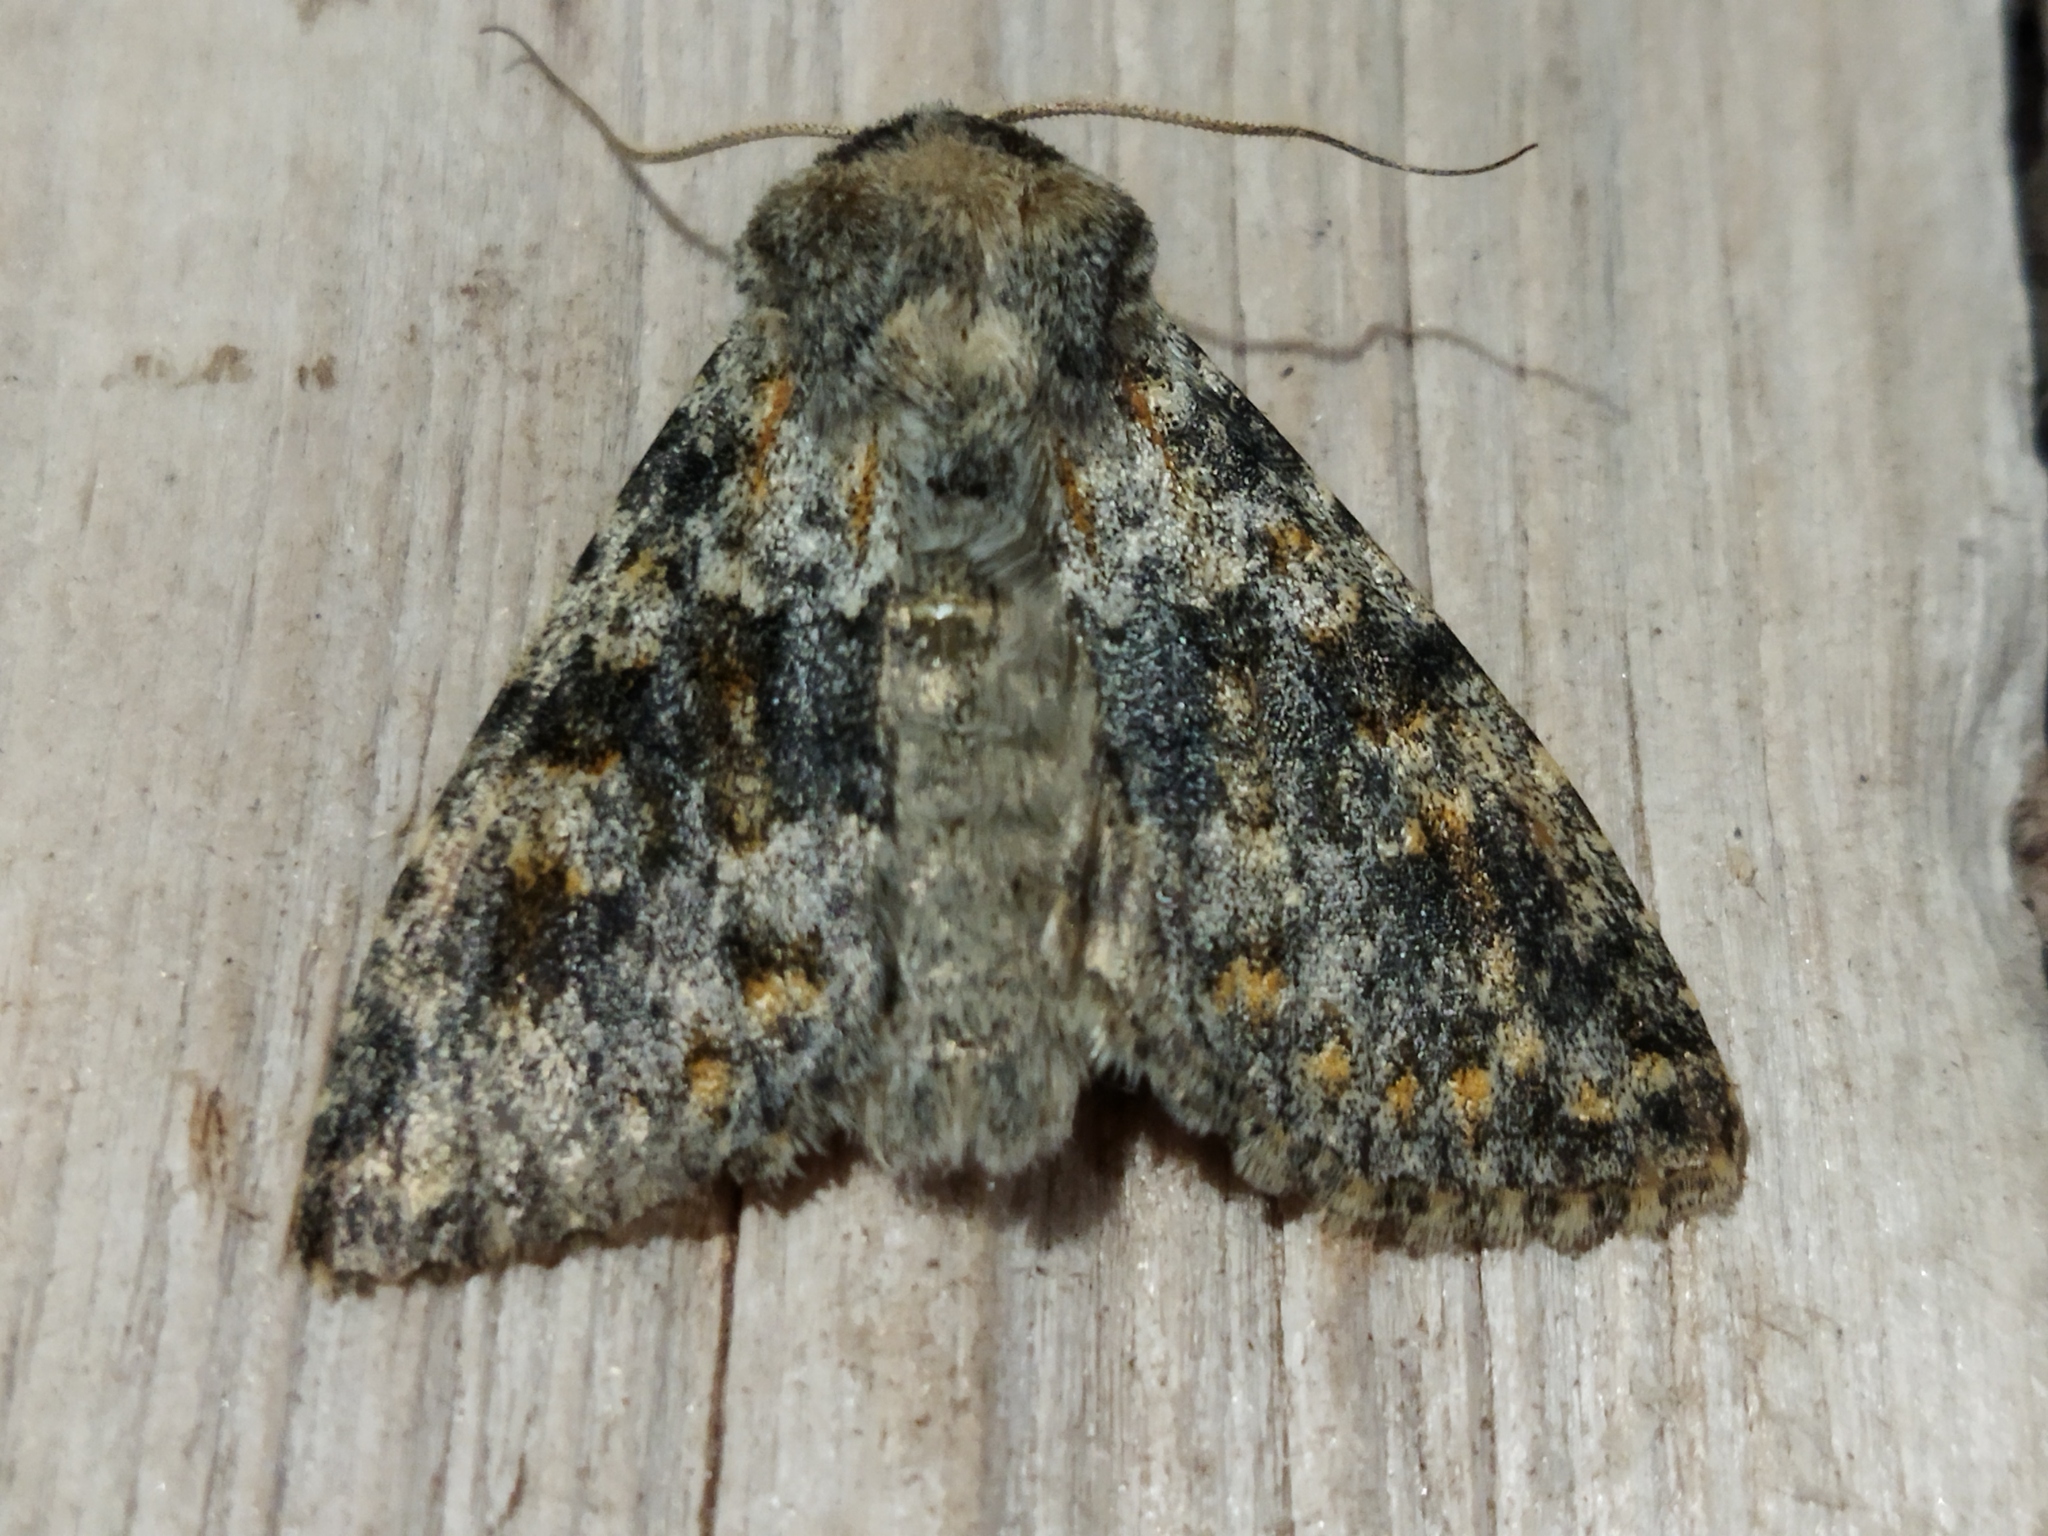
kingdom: Animalia
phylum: Arthropoda
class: Insecta
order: Lepidoptera
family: Noctuidae
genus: Polymixis
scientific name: Polymixis rufocincta
